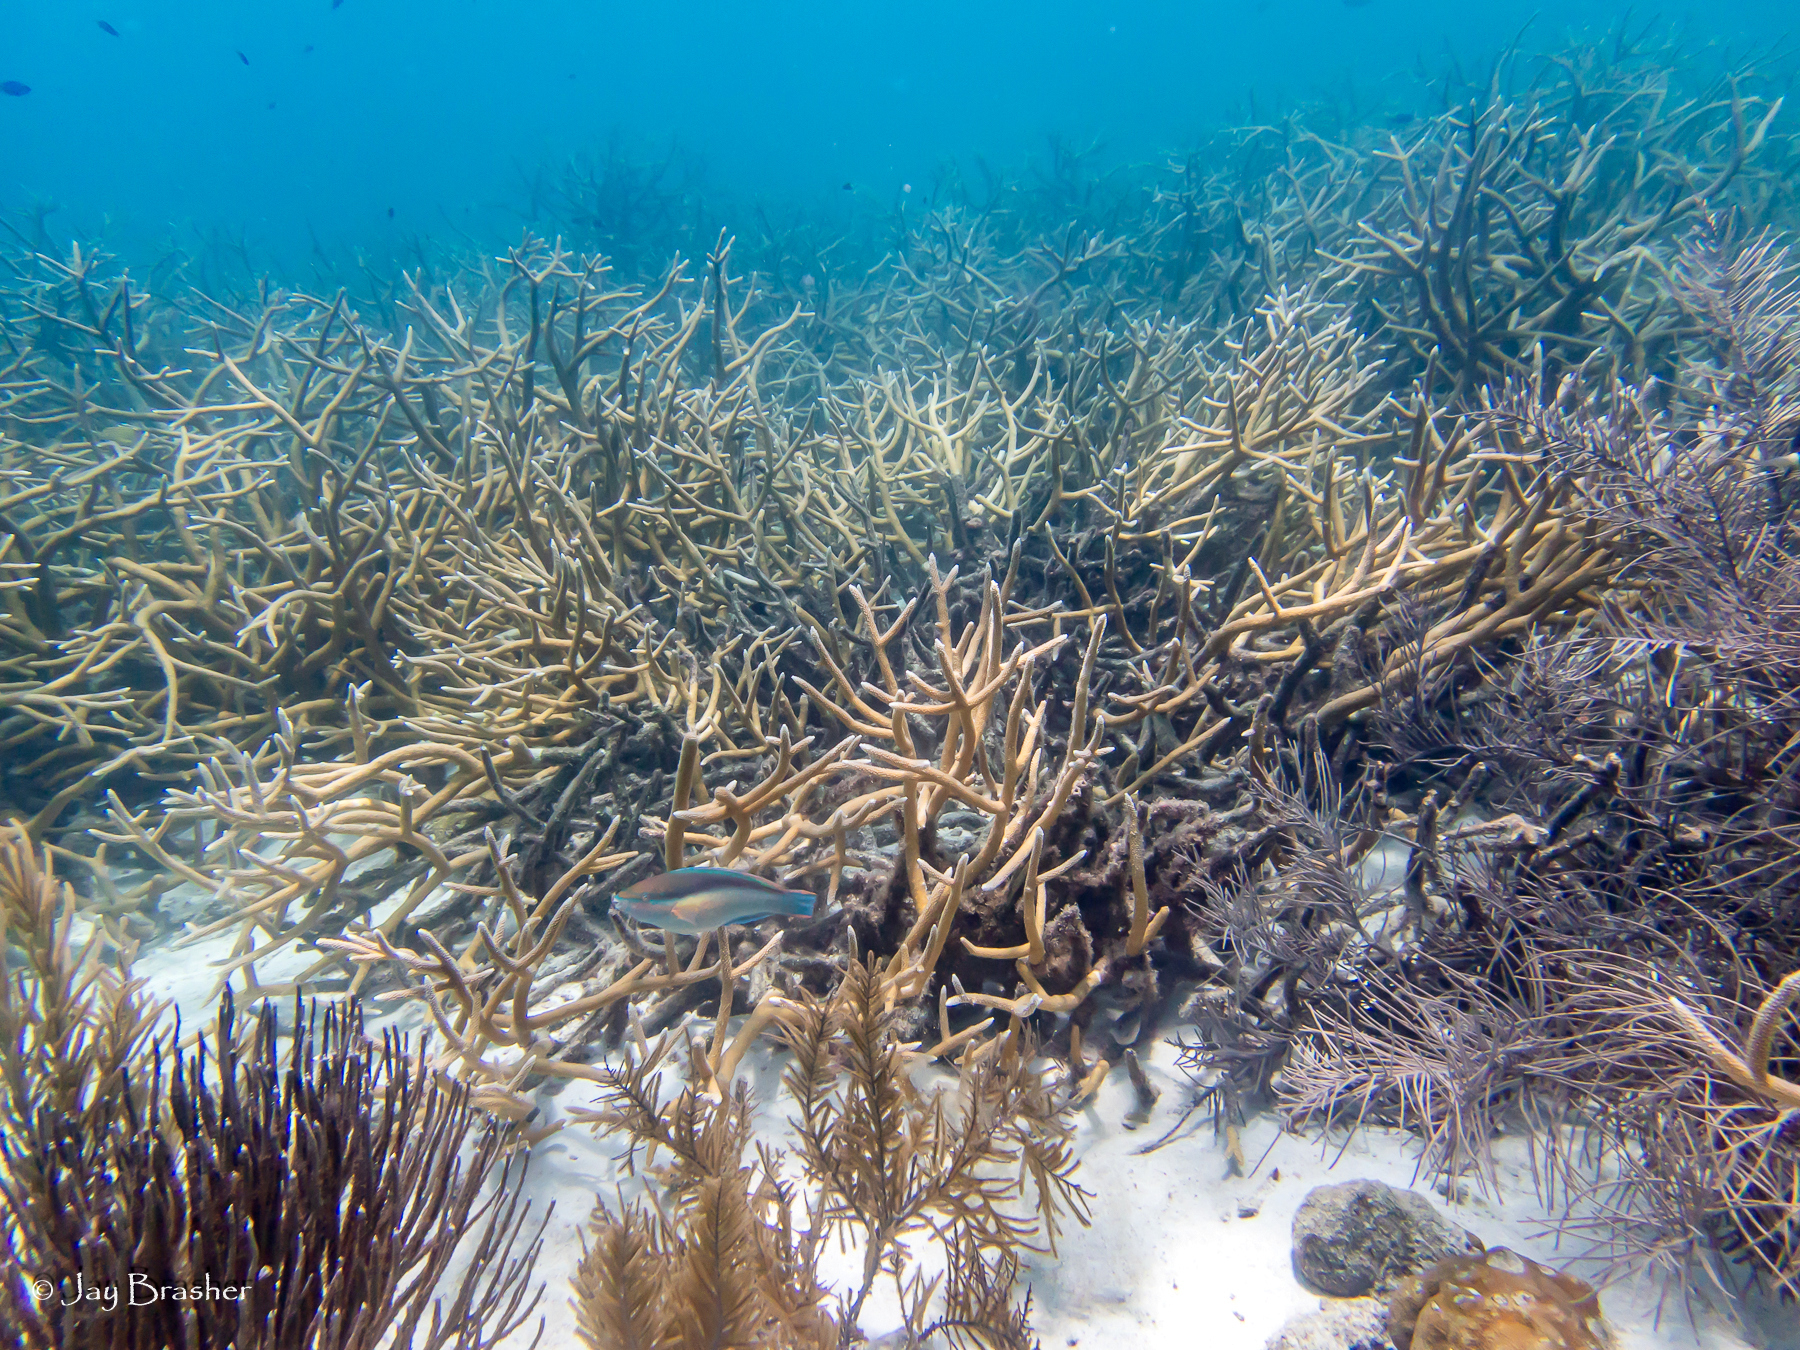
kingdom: Animalia
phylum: Chordata
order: Perciformes
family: Scaridae
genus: Scarus
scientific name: Scarus taeniopterus
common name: Princess parrotfish
